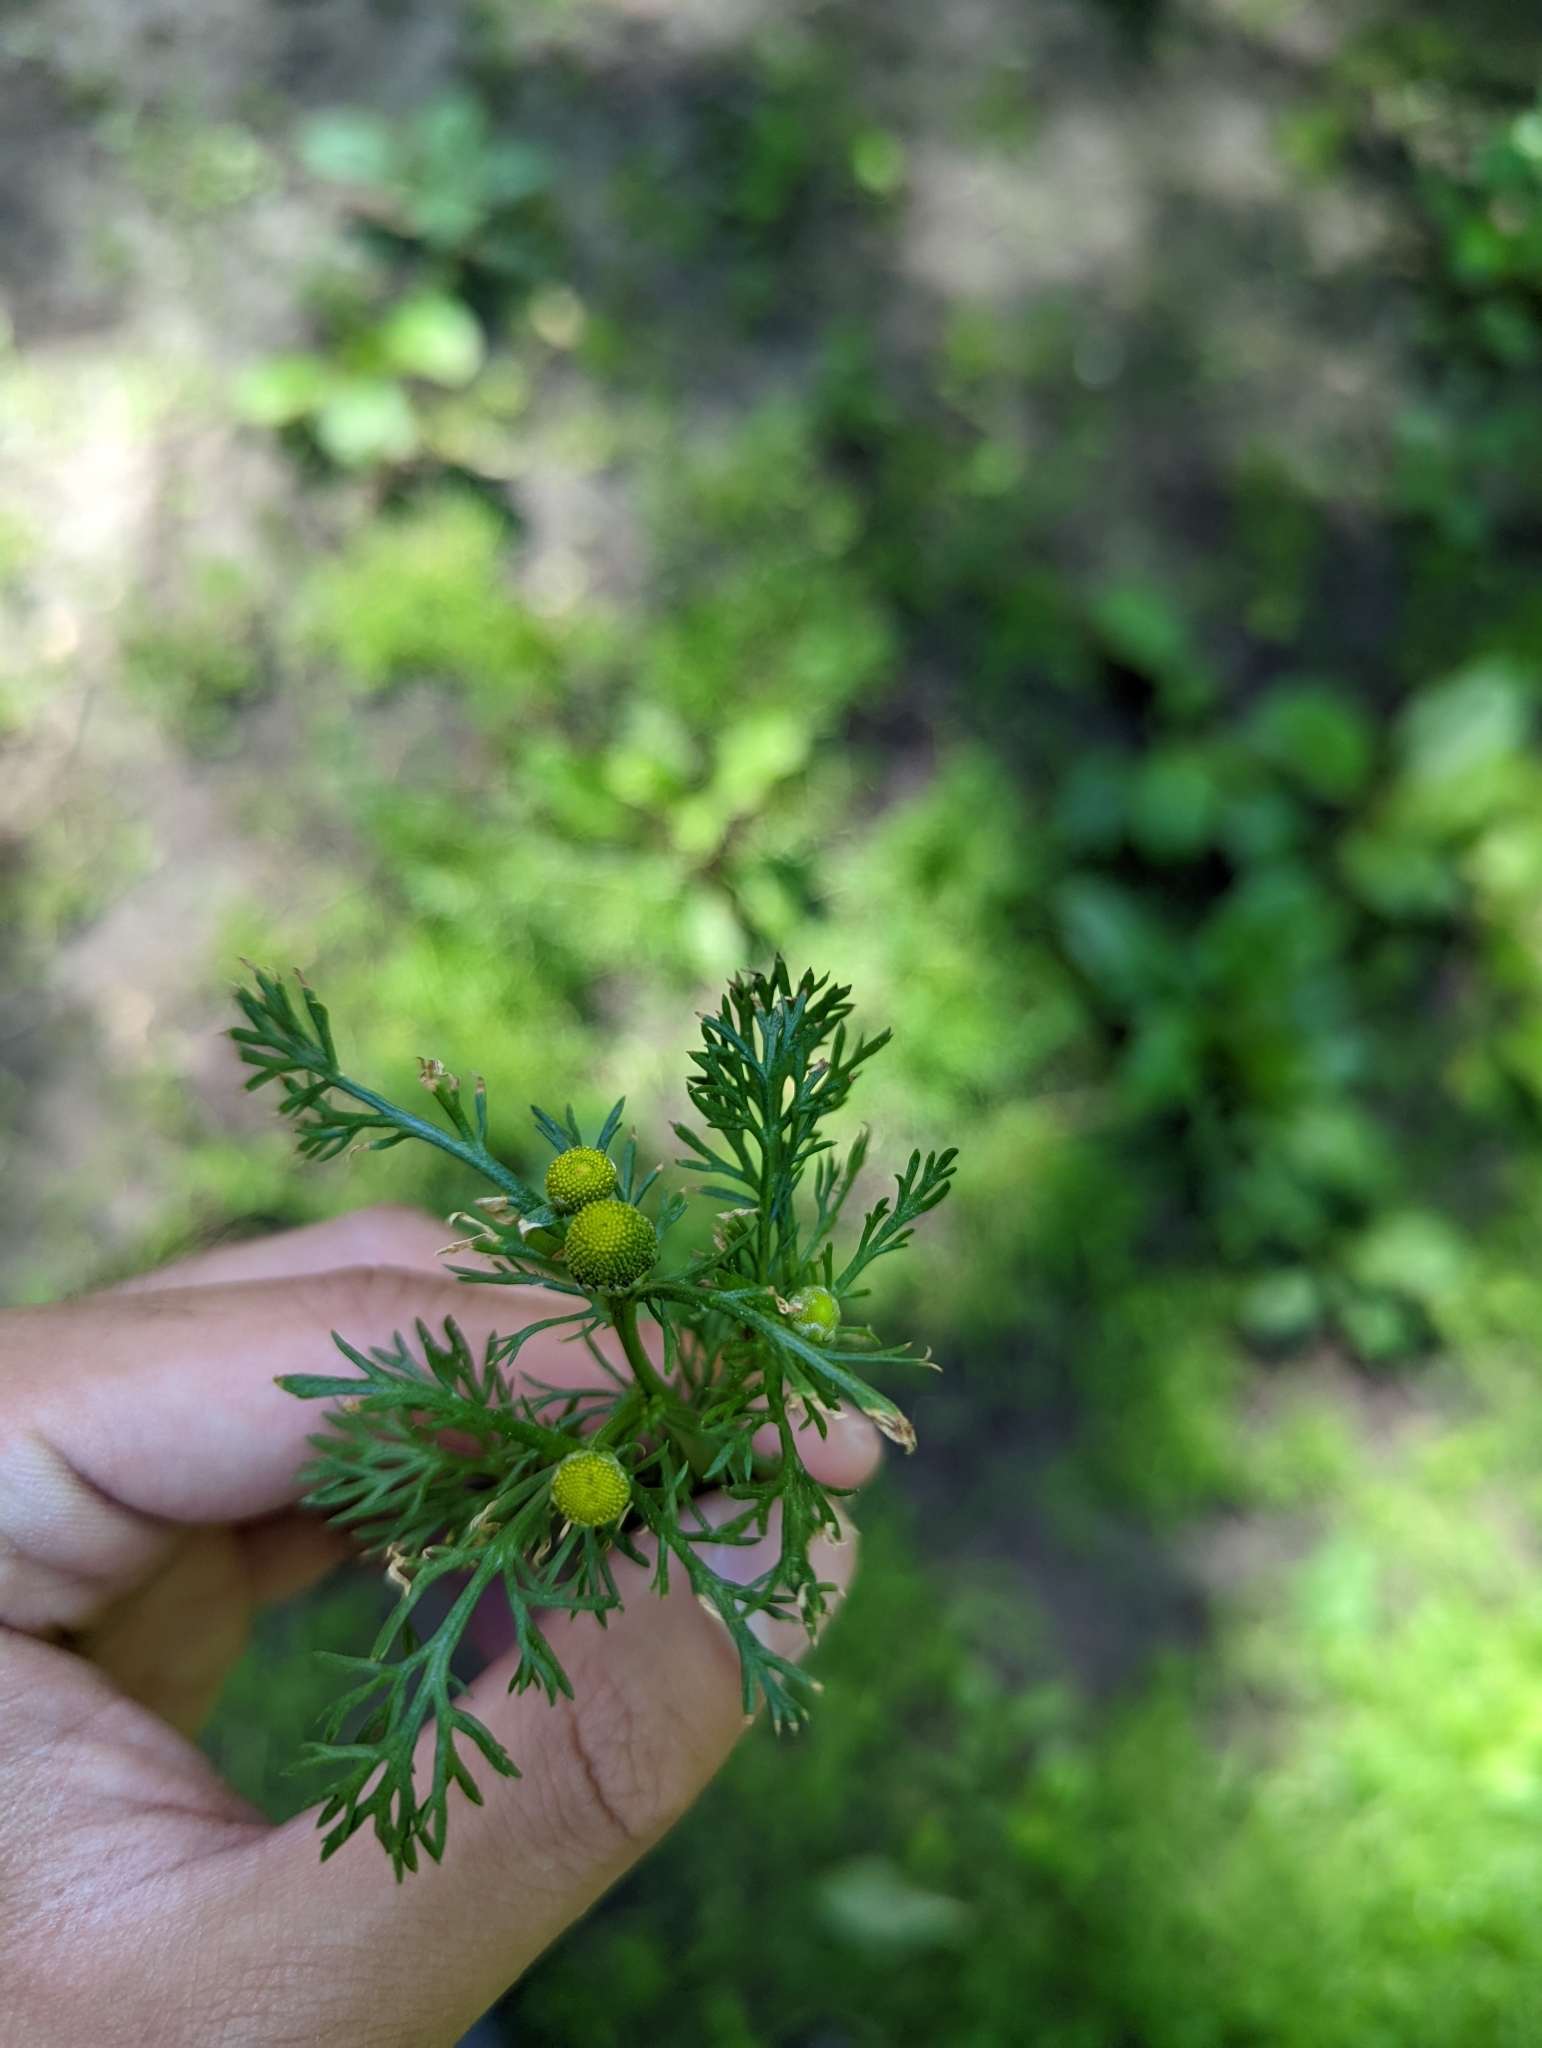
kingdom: Plantae
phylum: Tracheophyta
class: Magnoliopsida
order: Asterales
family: Asteraceae
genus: Matricaria
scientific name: Matricaria discoidea
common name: Disc mayweed
